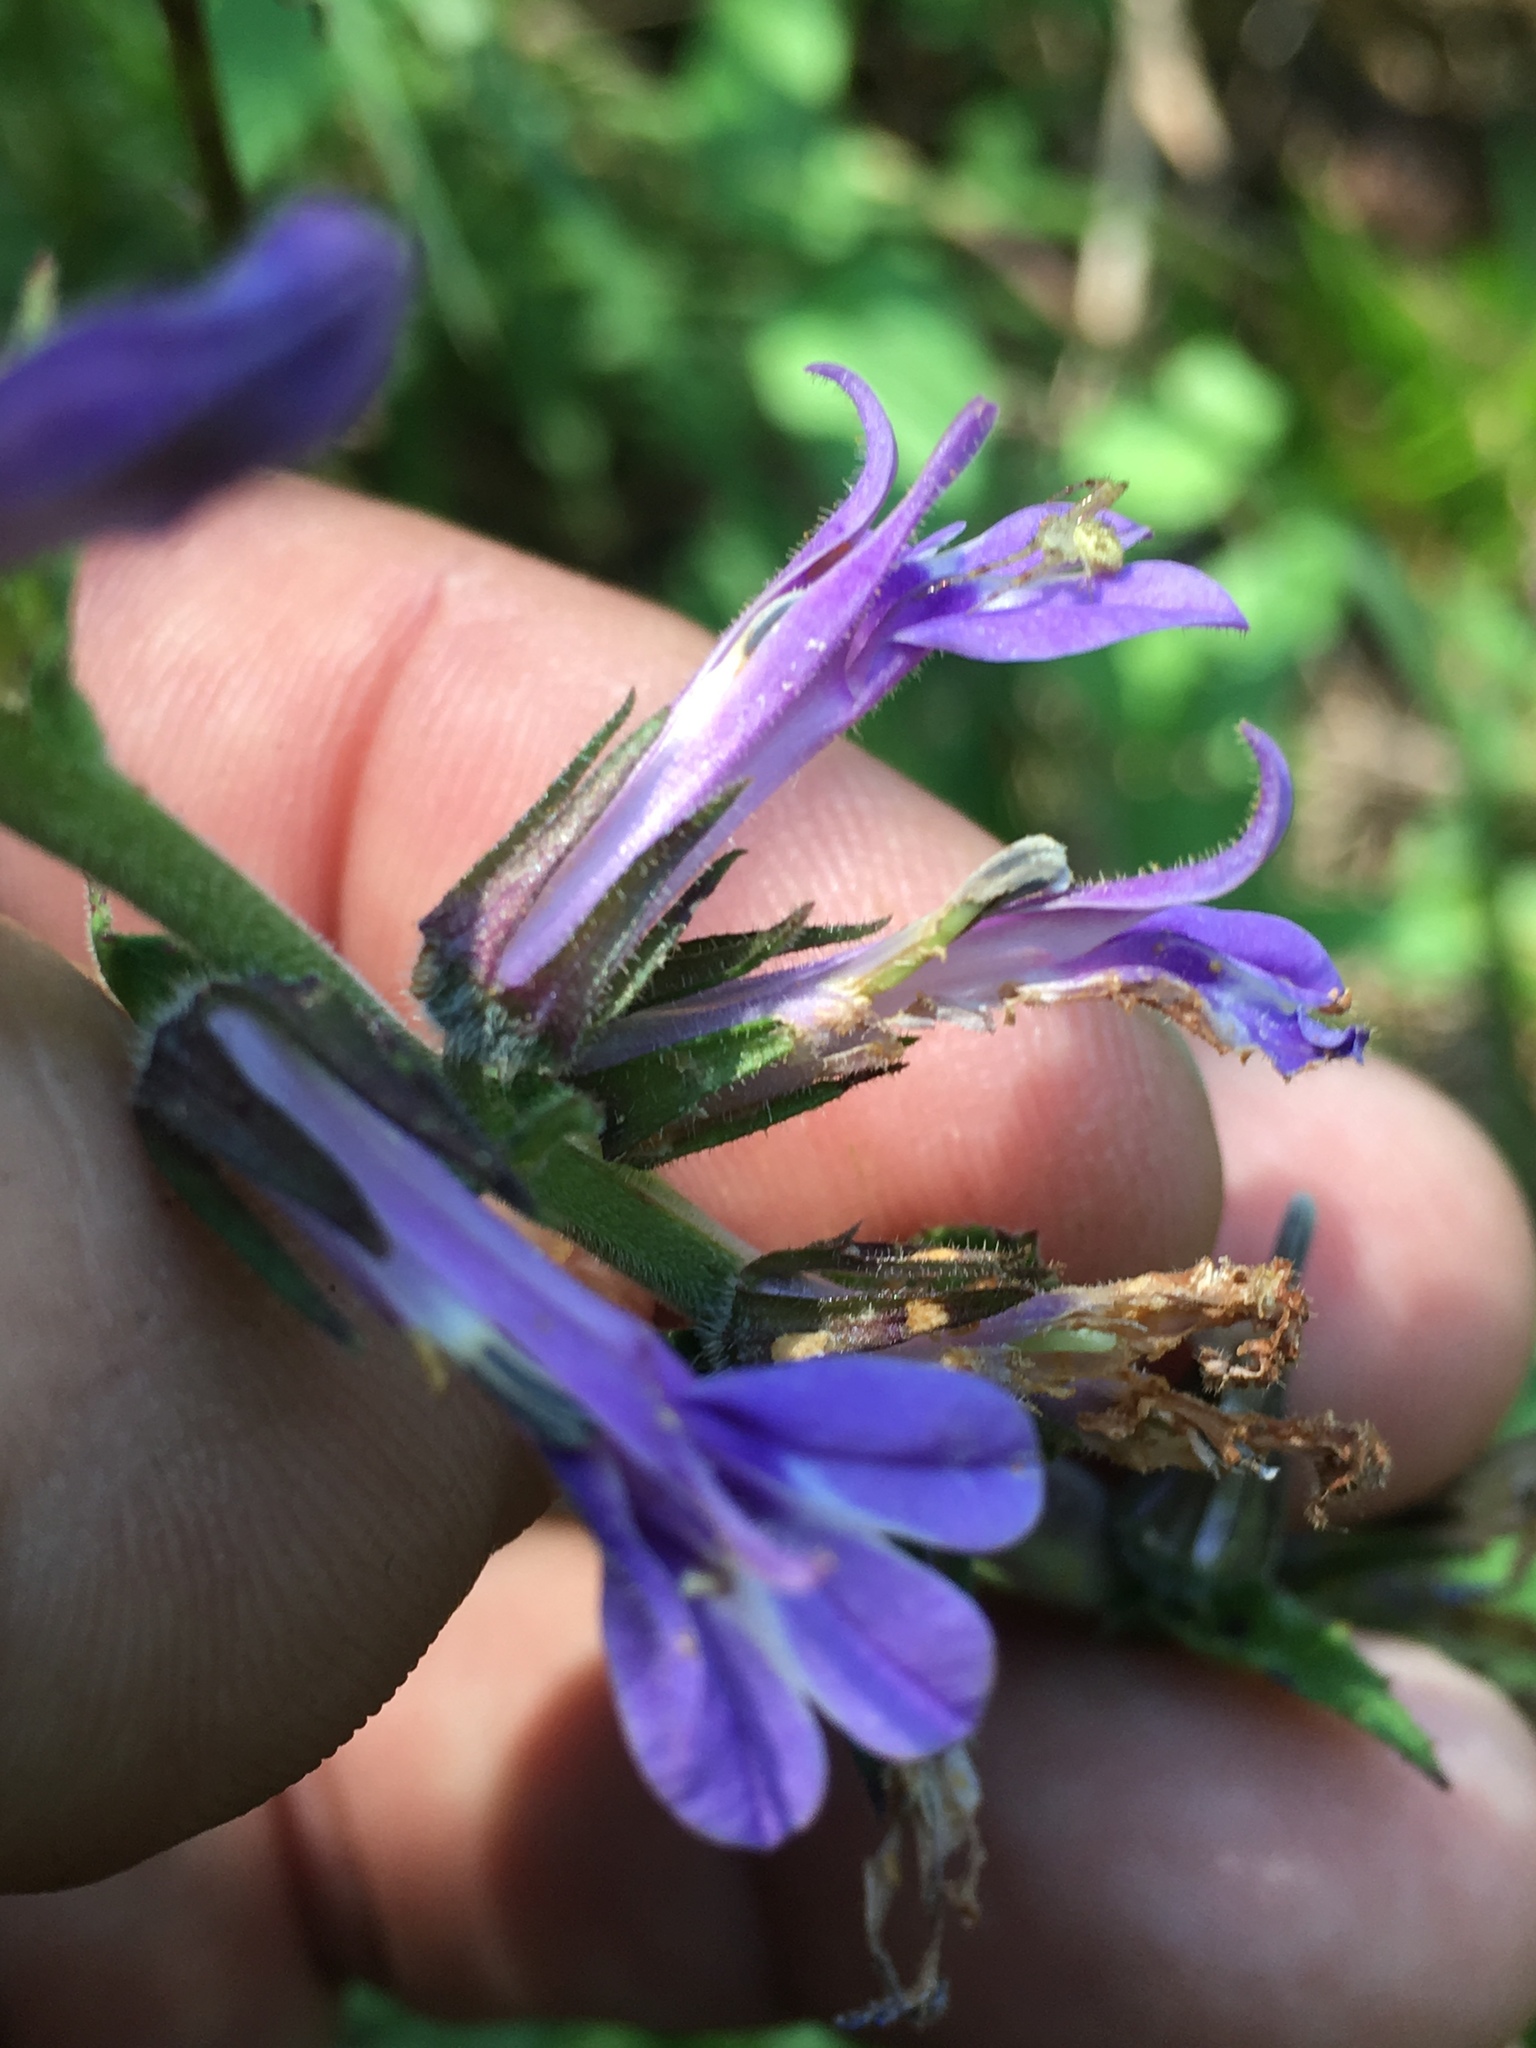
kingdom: Plantae
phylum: Tracheophyta
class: Magnoliopsida
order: Asterales
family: Campanulaceae
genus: Lobelia
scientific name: Lobelia puberula
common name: Purple dewdrop
